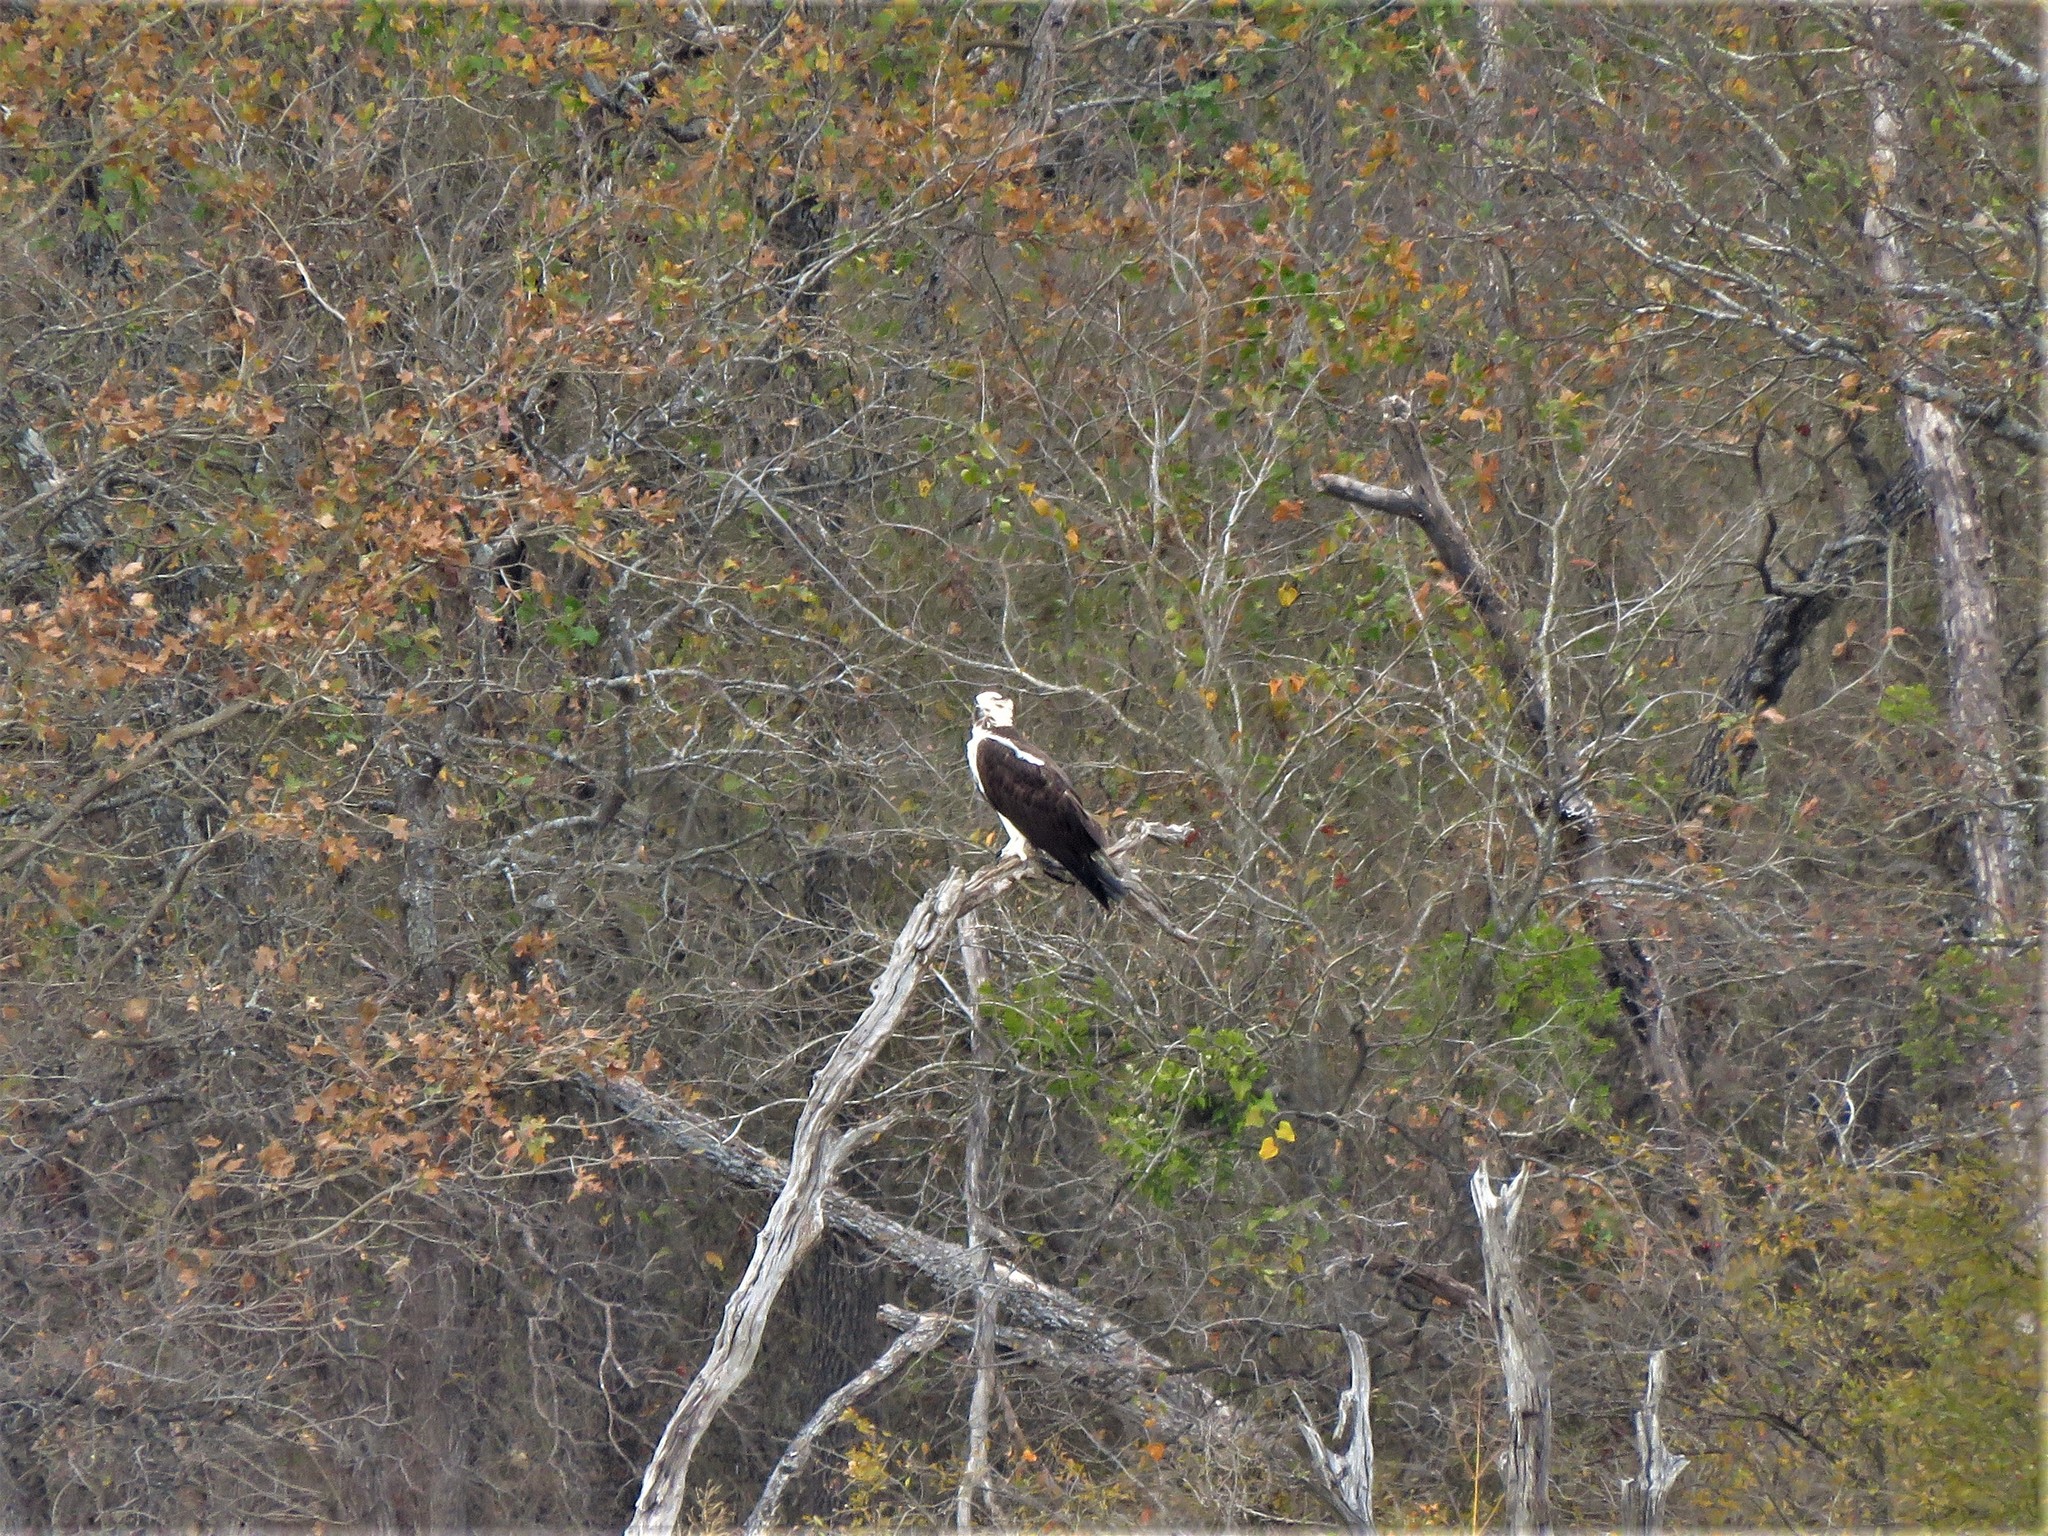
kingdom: Animalia
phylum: Chordata
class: Aves
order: Accipitriformes
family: Pandionidae
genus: Pandion
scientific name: Pandion haliaetus
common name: Osprey
